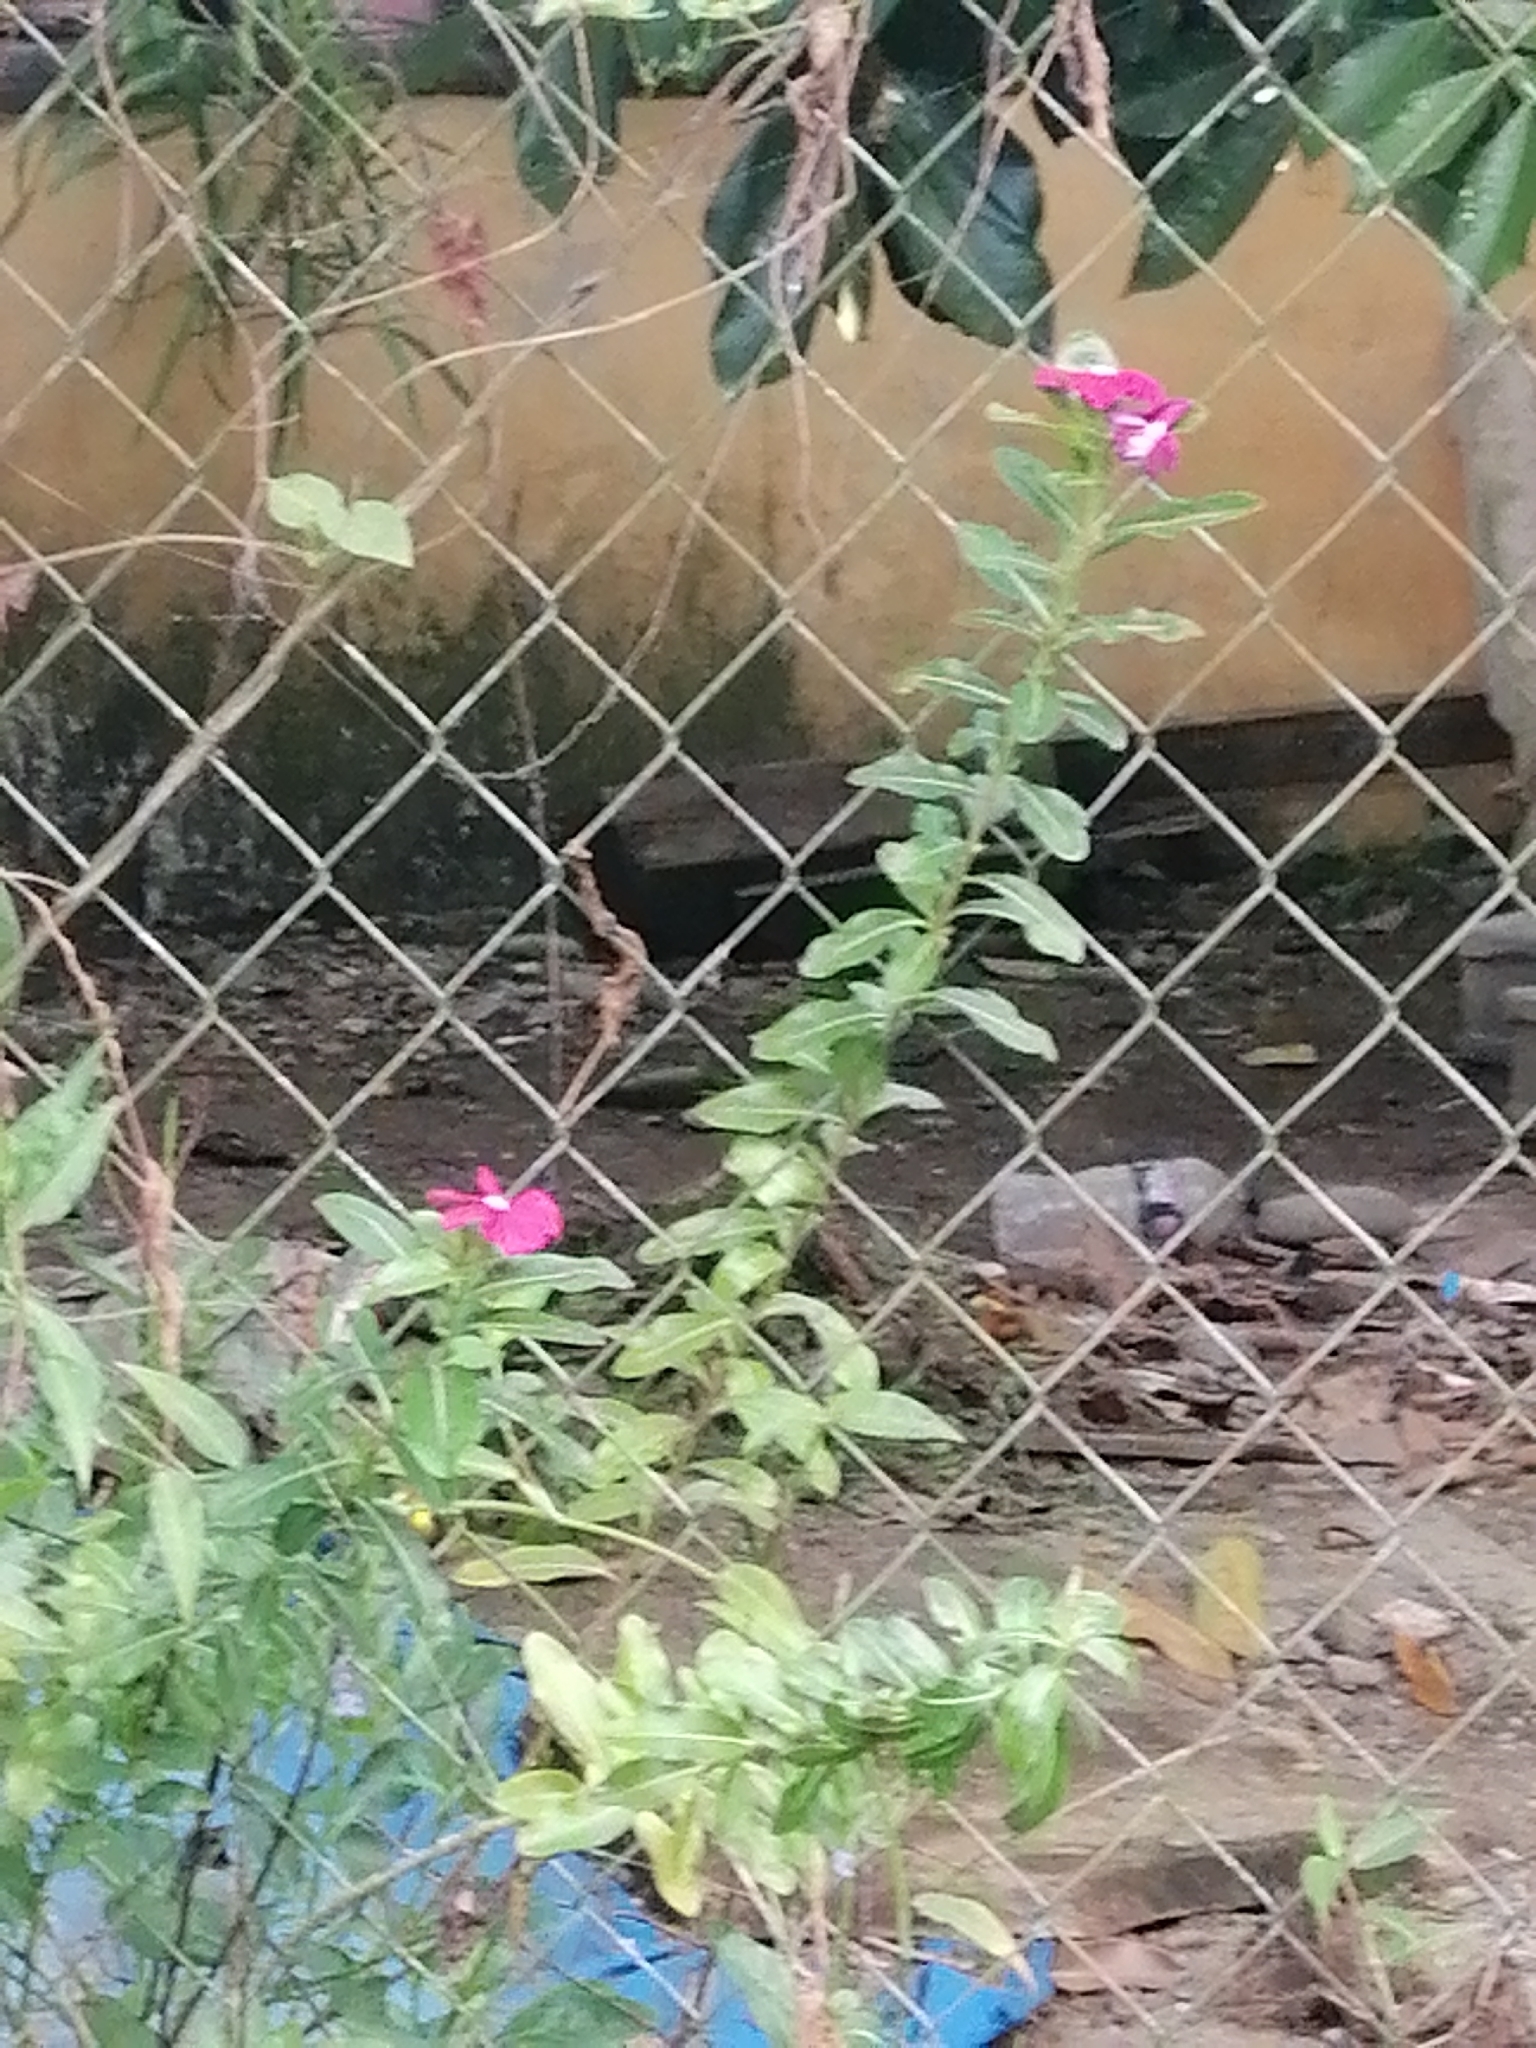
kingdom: Plantae
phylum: Tracheophyta
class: Magnoliopsida
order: Gentianales
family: Apocynaceae
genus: Catharanthus
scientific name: Catharanthus roseus
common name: Madagascar periwinkle
